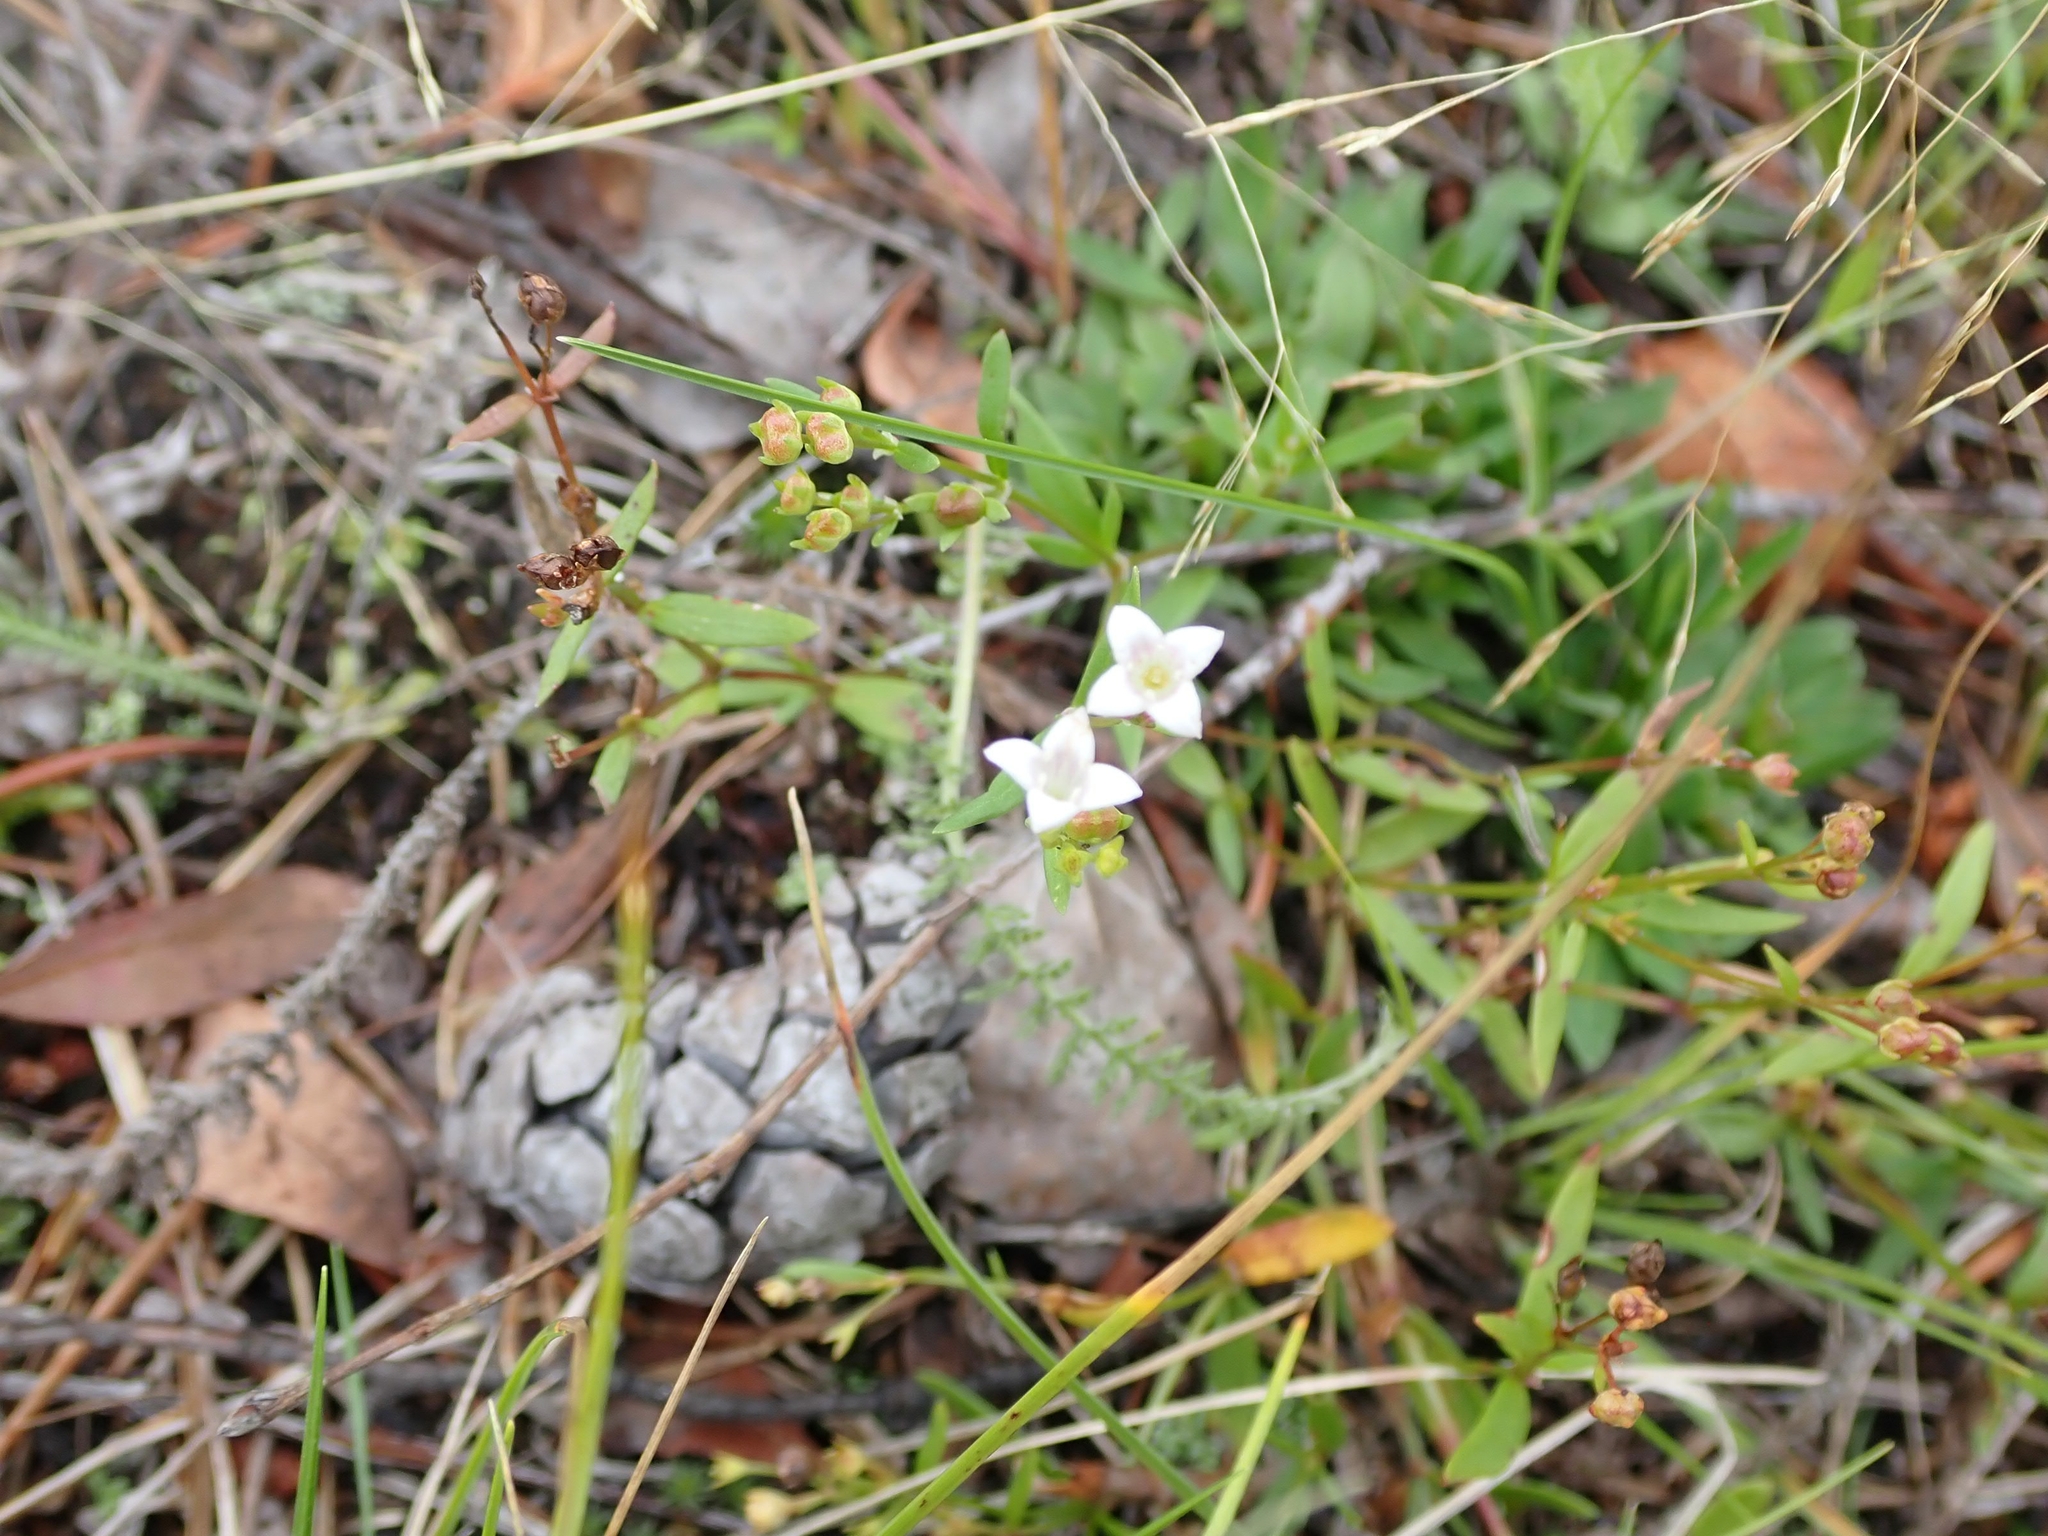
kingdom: Plantae
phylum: Tracheophyta
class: Magnoliopsida
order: Gentianales
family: Rubiaceae
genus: Houstonia
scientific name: Houstonia longifolia
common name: Long-leaved bluets
